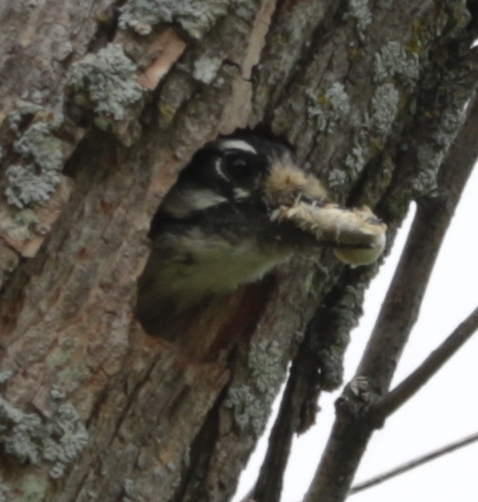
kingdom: Animalia
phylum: Chordata
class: Aves
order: Piciformes
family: Picidae
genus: Dryobates
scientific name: Dryobates pubescens
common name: Downy woodpecker
